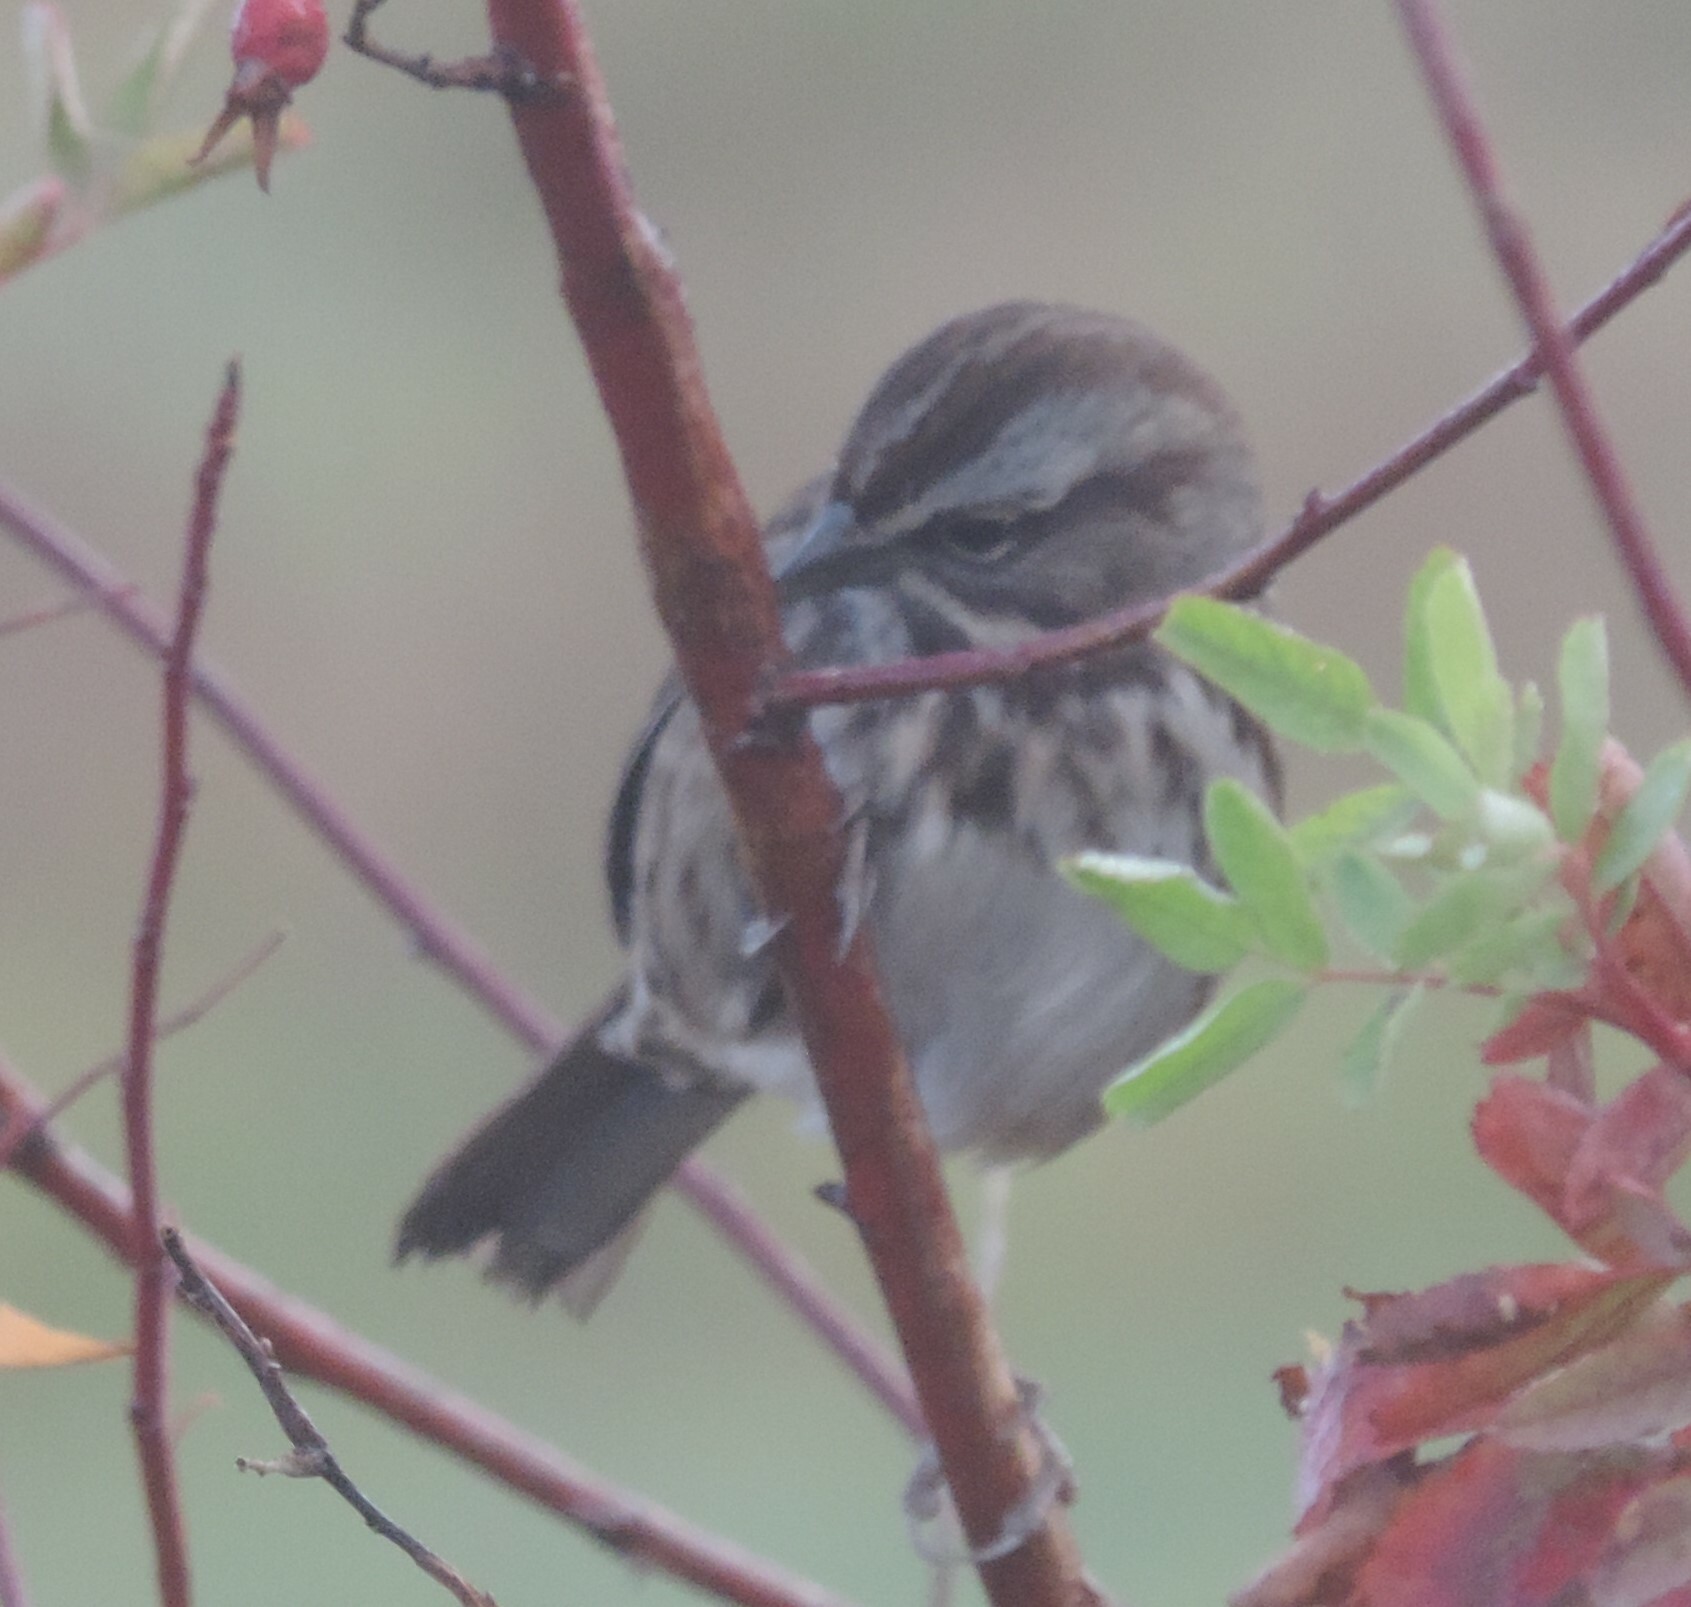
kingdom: Animalia
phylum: Chordata
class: Aves
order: Passeriformes
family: Passerellidae
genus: Melospiza
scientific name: Melospiza melodia
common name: Song sparrow
